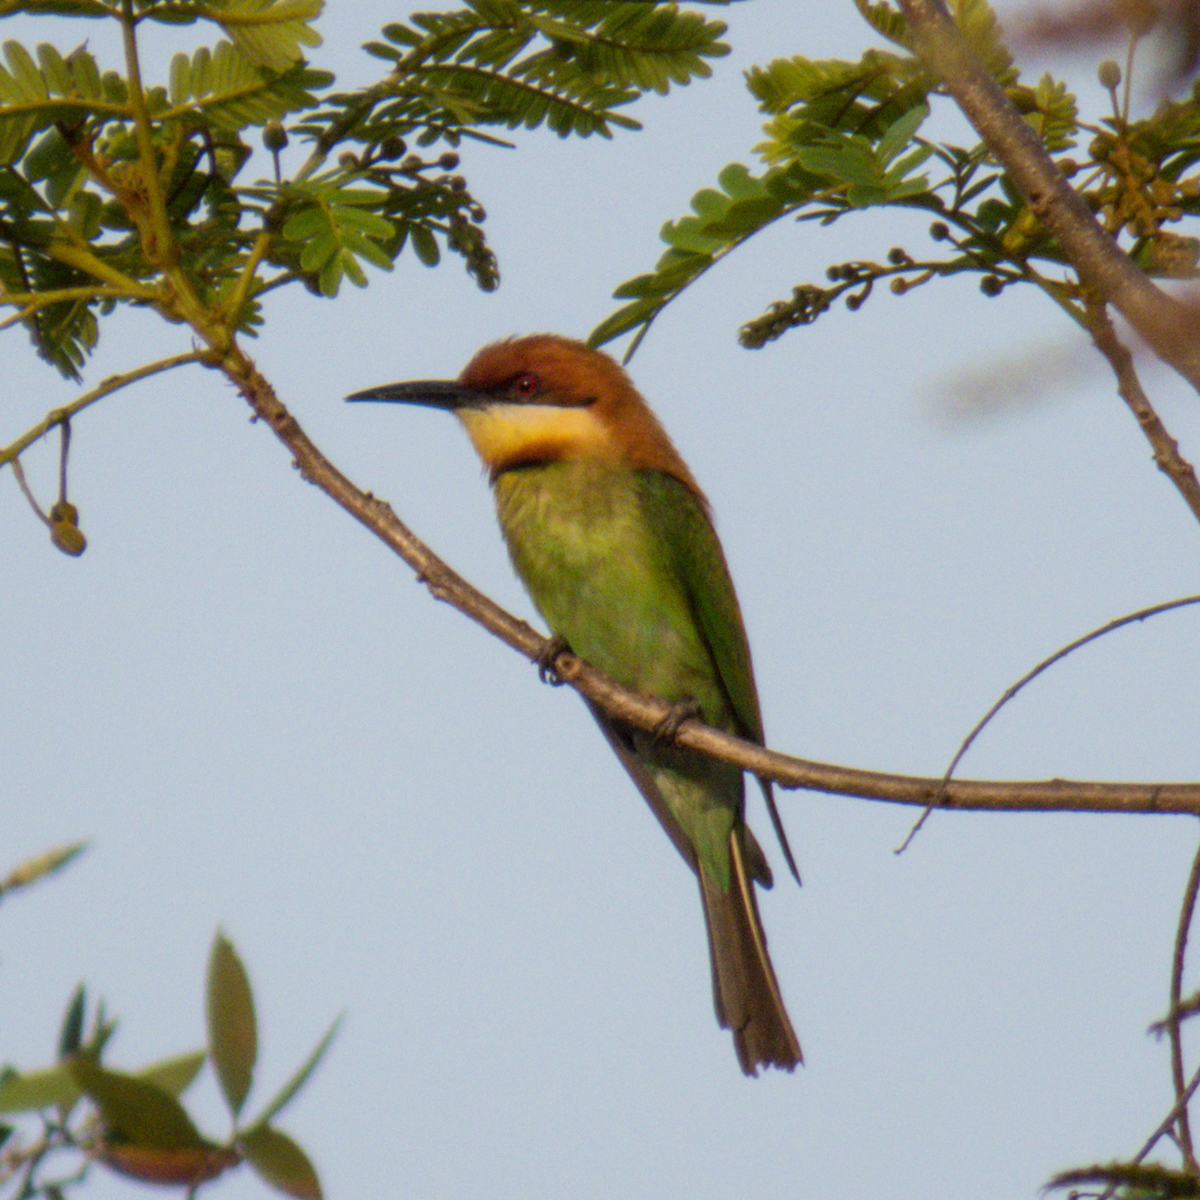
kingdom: Animalia
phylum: Chordata
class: Aves
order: Coraciiformes
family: Meropidae
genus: Merops
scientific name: Merops leschenaulti
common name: Chestnut-headed bee-eater
